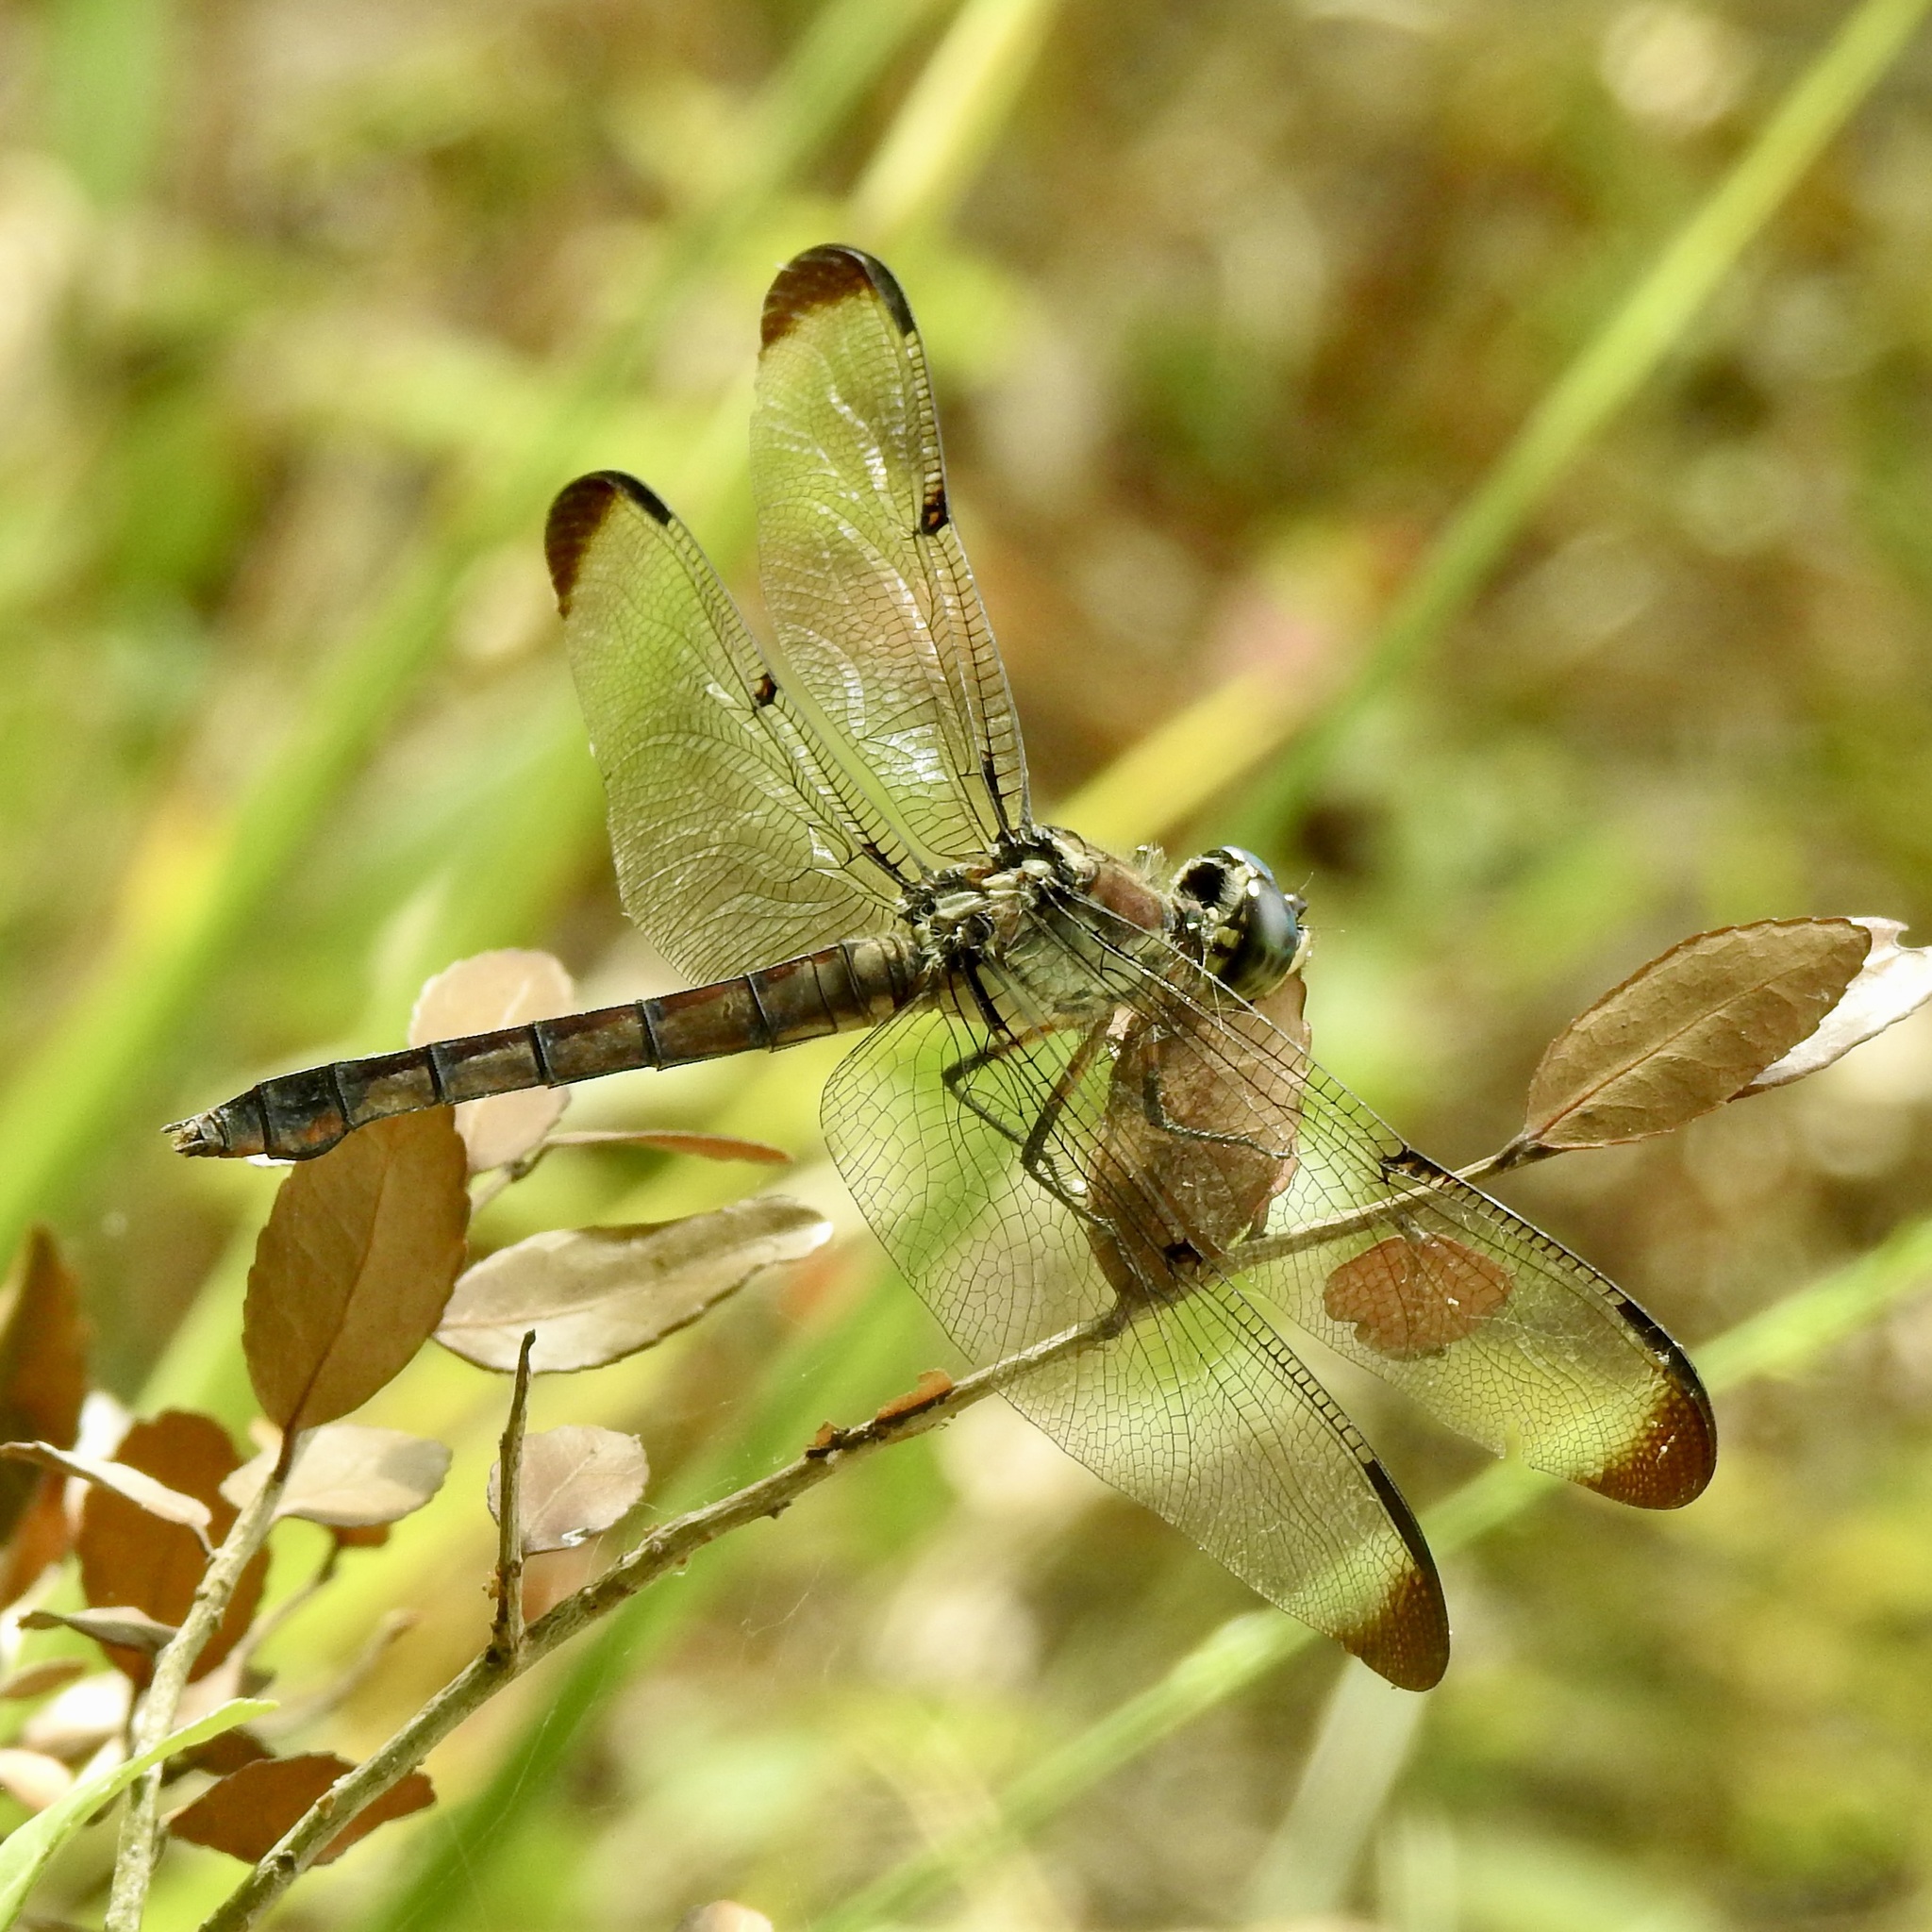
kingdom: Animalia
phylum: Arthropoda
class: Insecta
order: Odonata
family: Libellulidae
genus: Libellula
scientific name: Libellula vibrans
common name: Great blue skimmer
